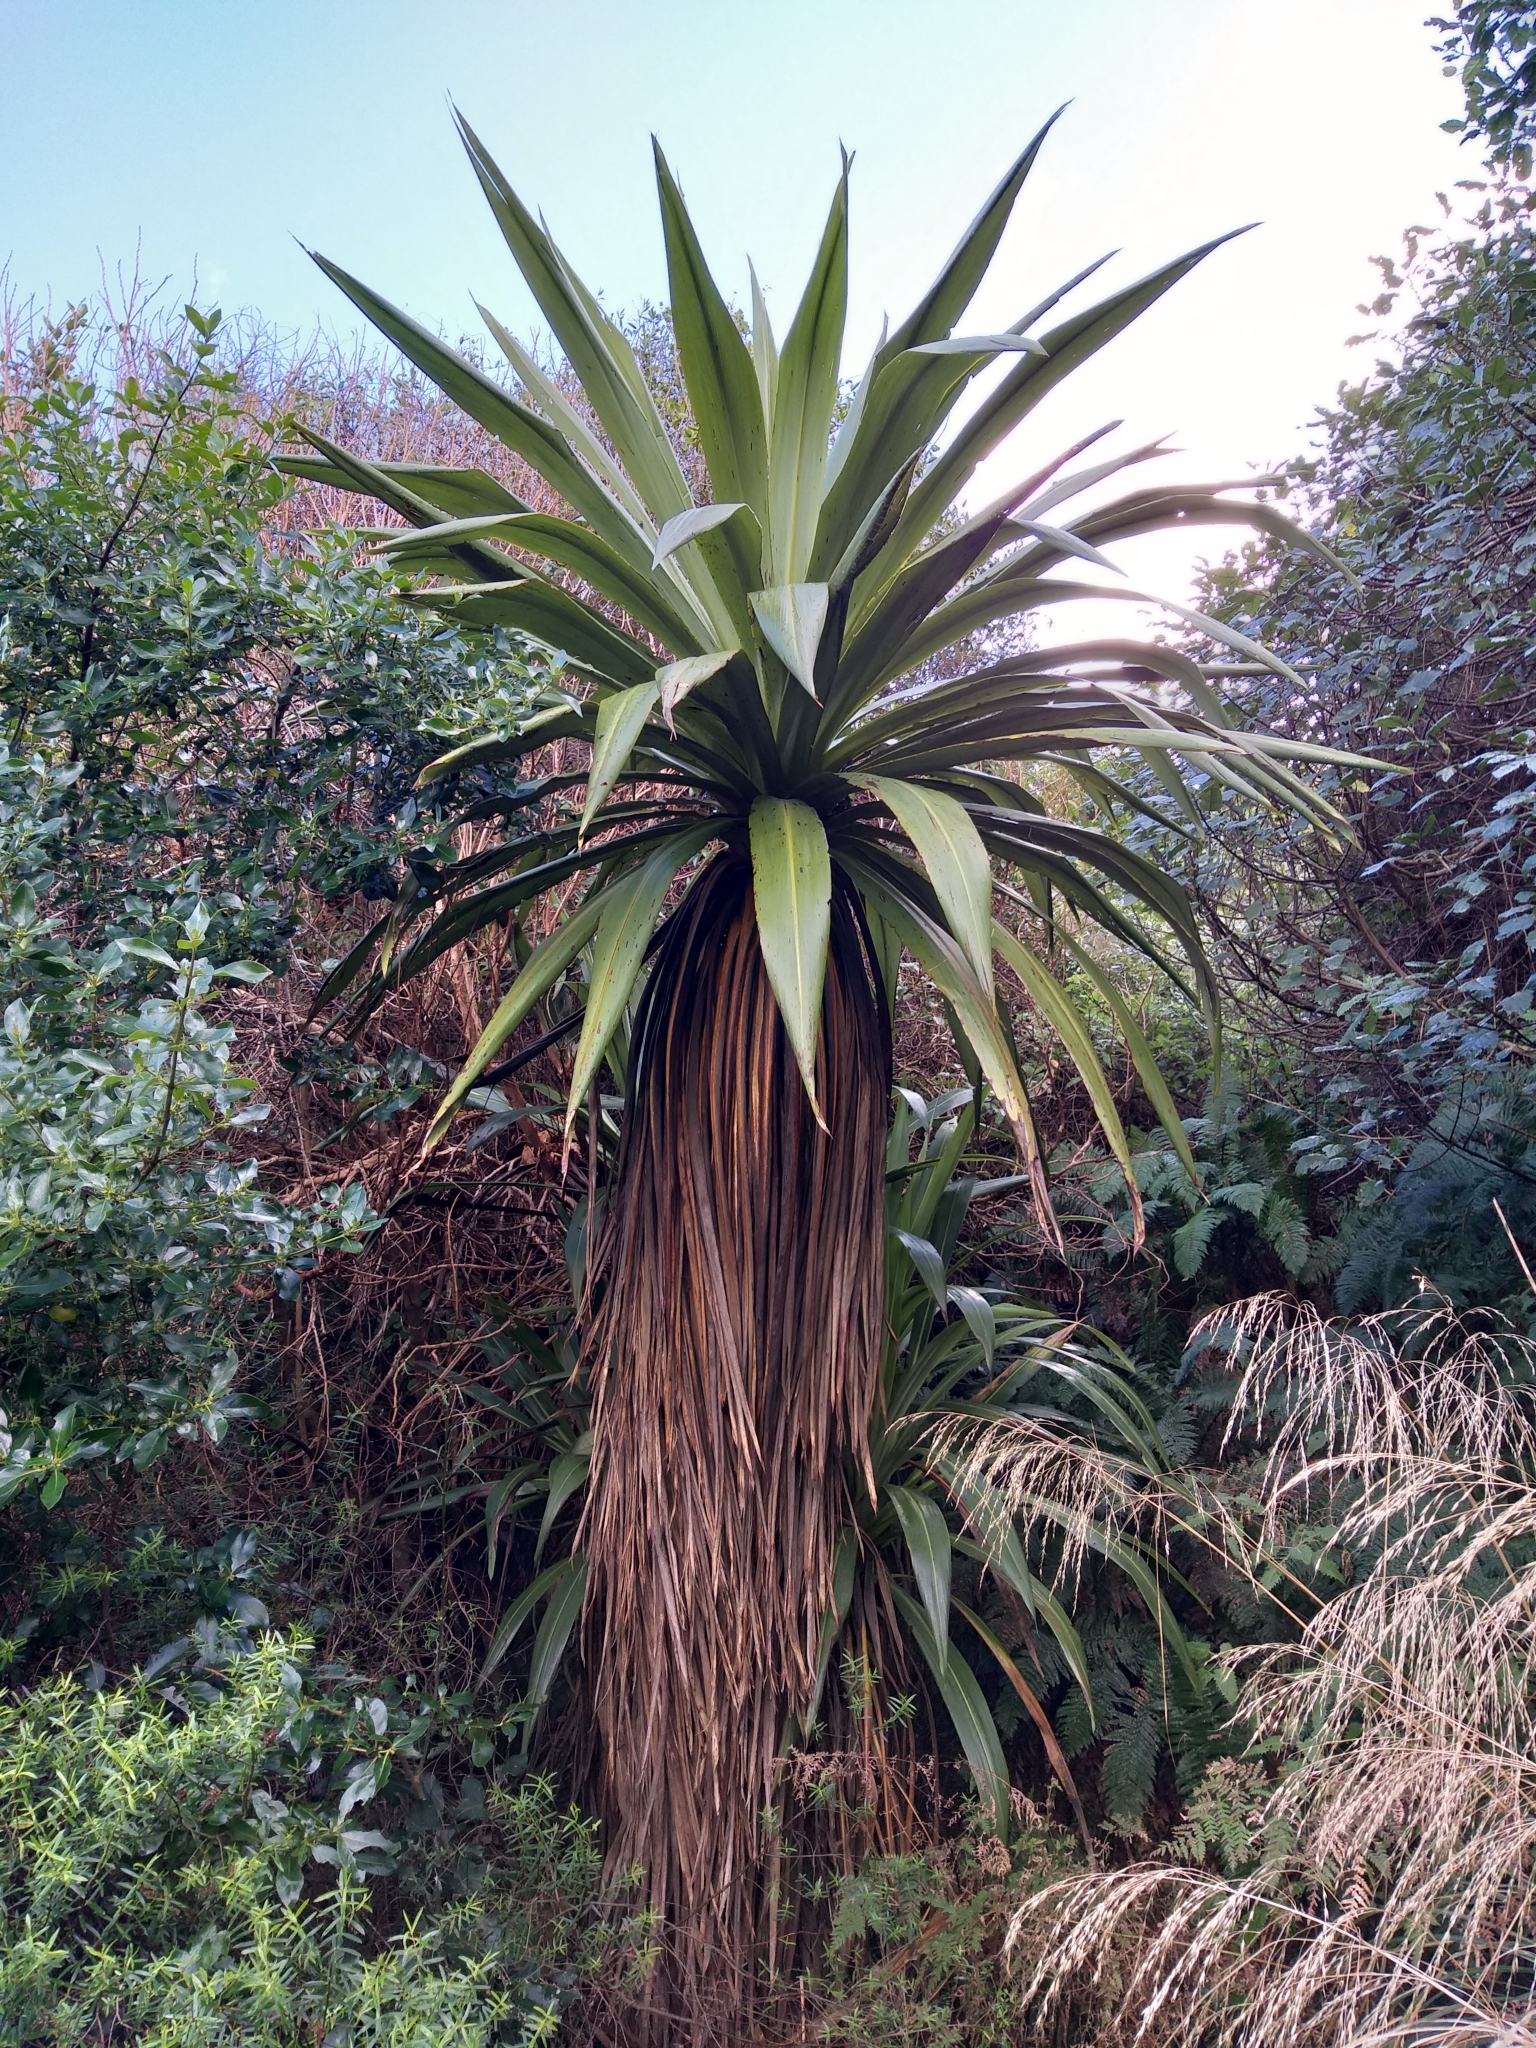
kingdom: Plantae
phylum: Tracheophyta
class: Liliopsida
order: Asparagales
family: Asparagaceae
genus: Cordyline
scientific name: Cordyline indivisa
